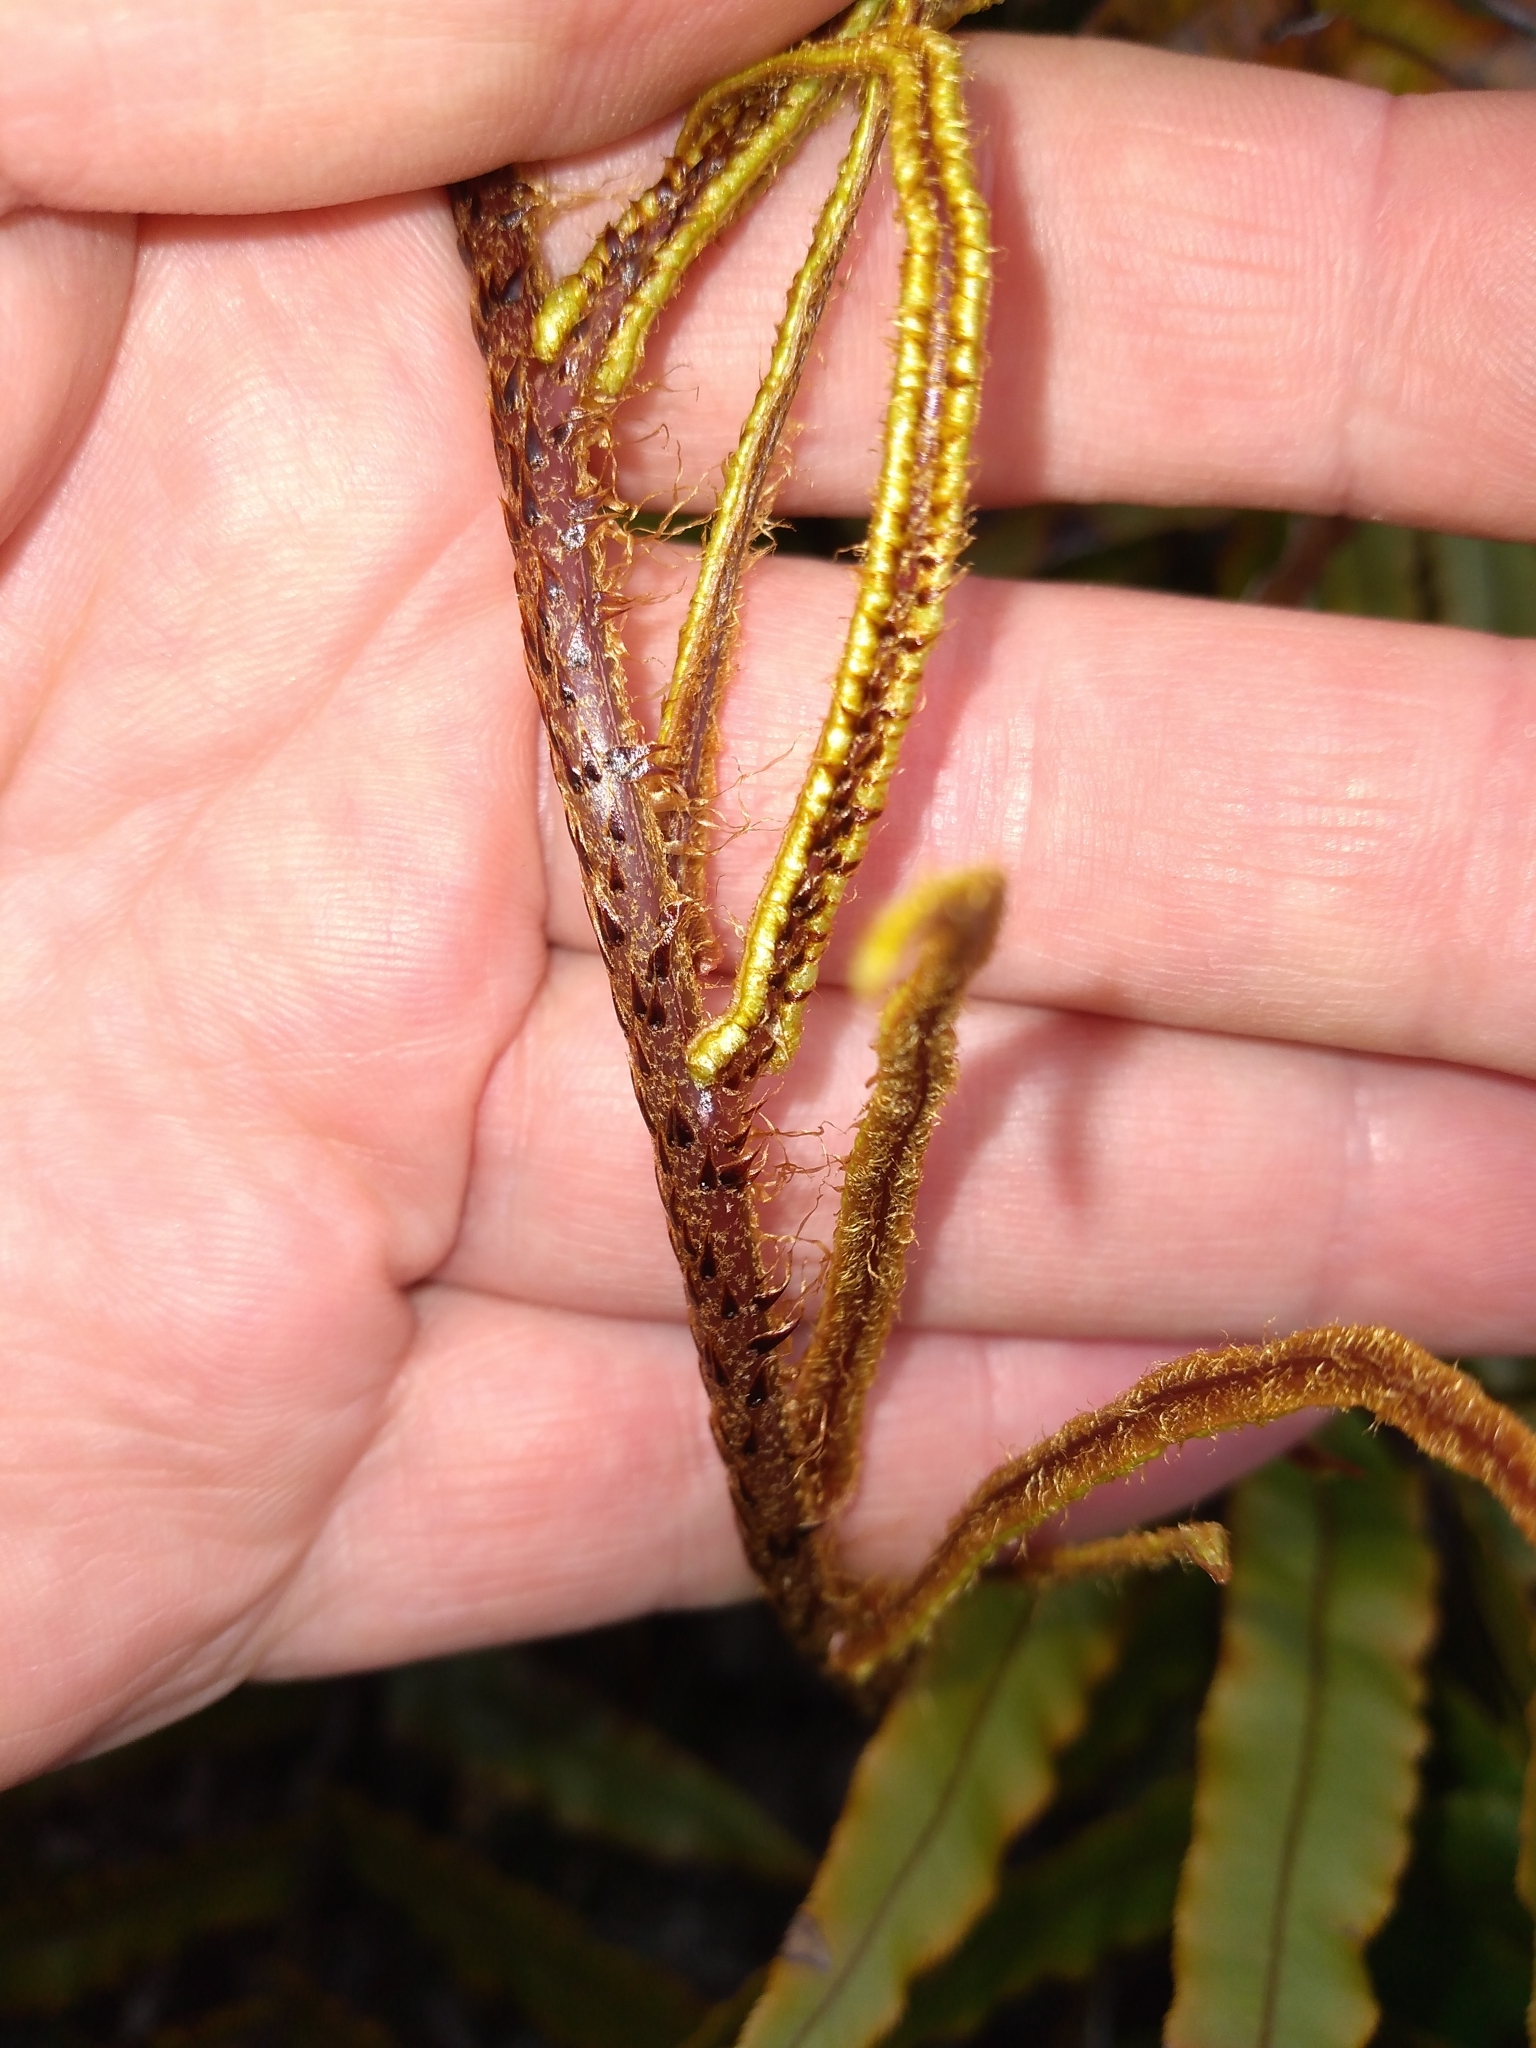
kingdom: Plantae
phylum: Tracheophyta
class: Polypodiopsida
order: Polypodiales
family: Blechnaceae
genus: Parablechnum
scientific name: Parablechnum procerum
